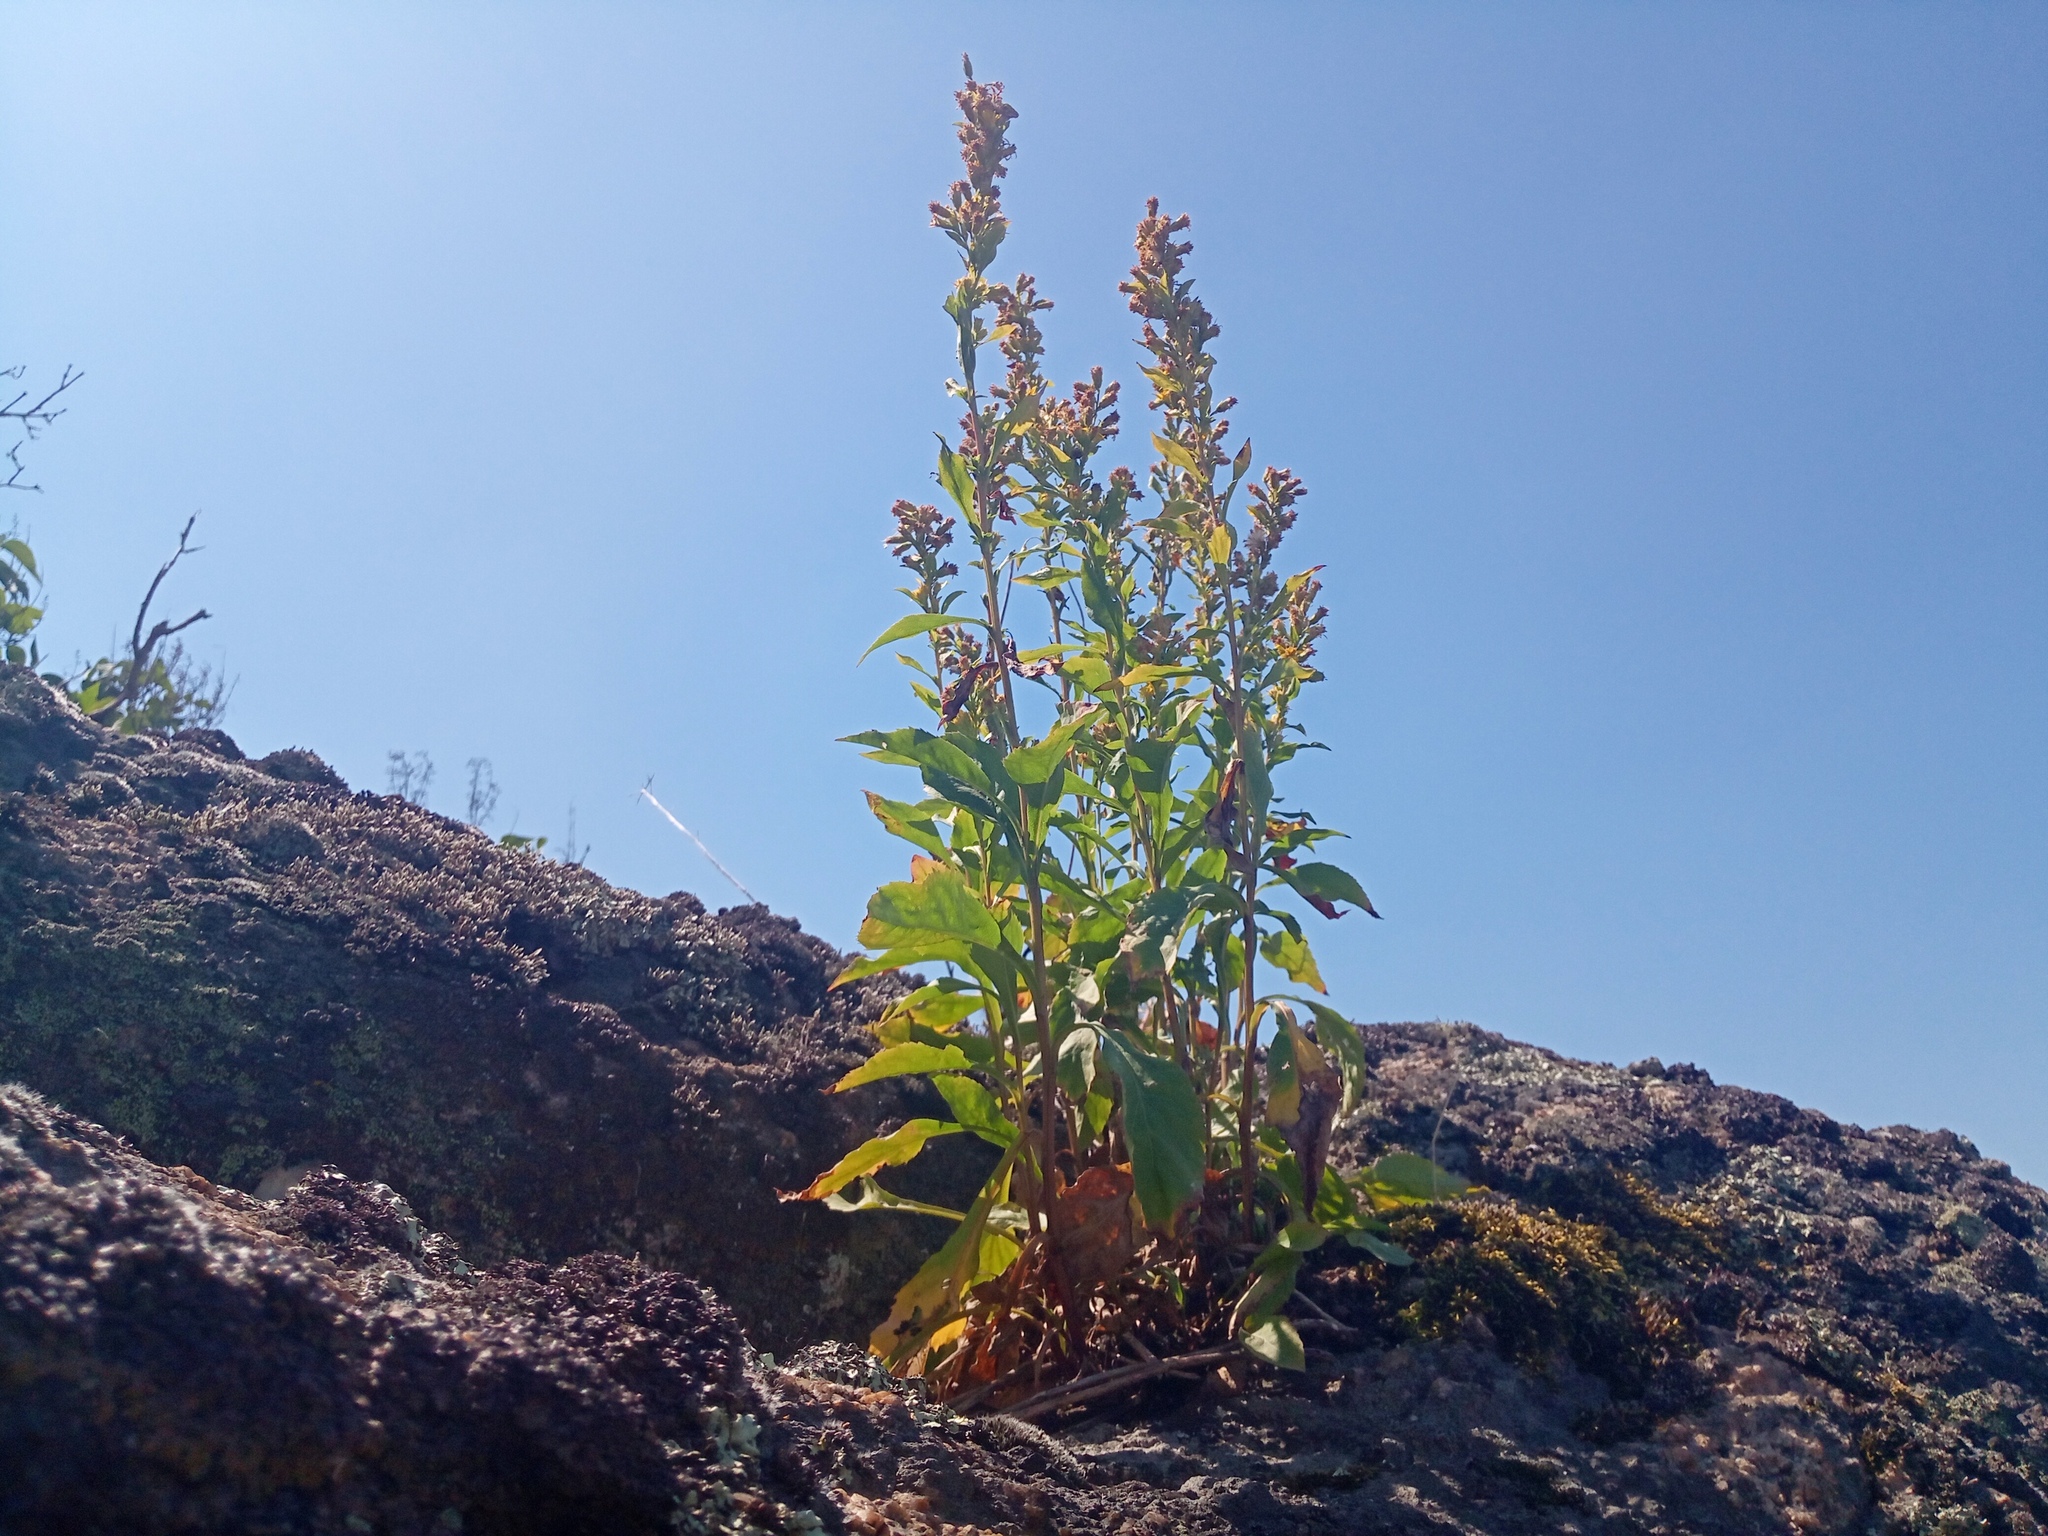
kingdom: Plantae
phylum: Tracheophyta
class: Magnoliopsida
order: Asterales
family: Asteraceae
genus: Solidago
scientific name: Solidago virgaurea
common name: Goldenrod
